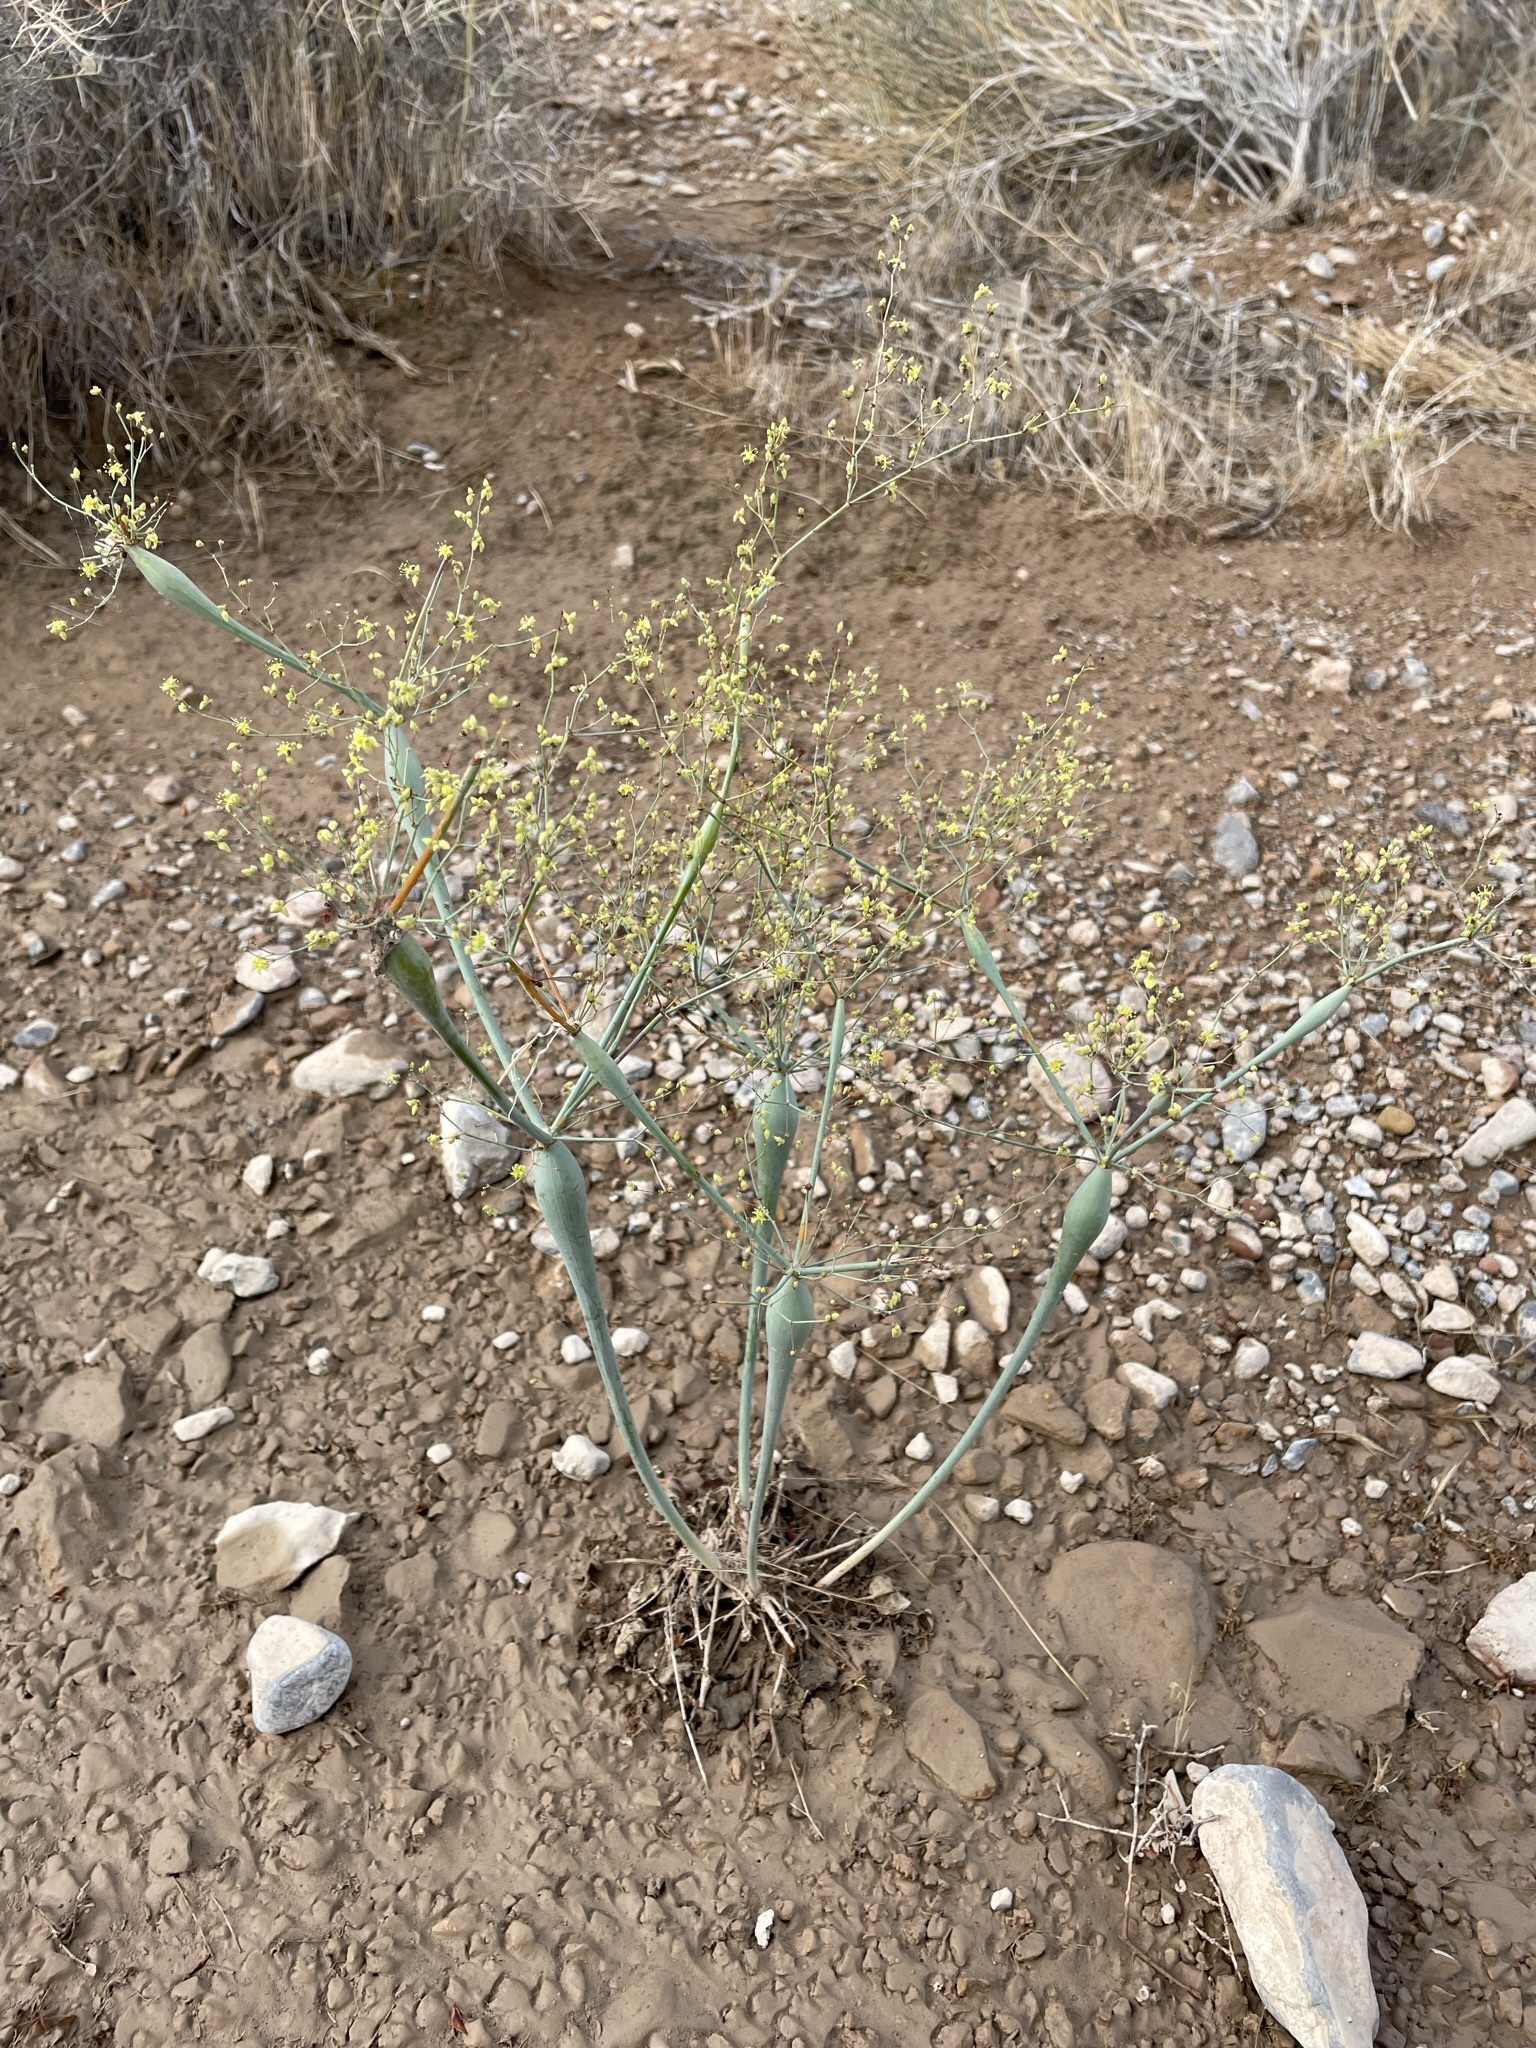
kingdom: Plantae
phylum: Tracheophyta
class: Magnoliopsida
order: Caryophyllales
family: Polygonaceae
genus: Eriogonum
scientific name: Eriogonum inflatum
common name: Desert trumpet
